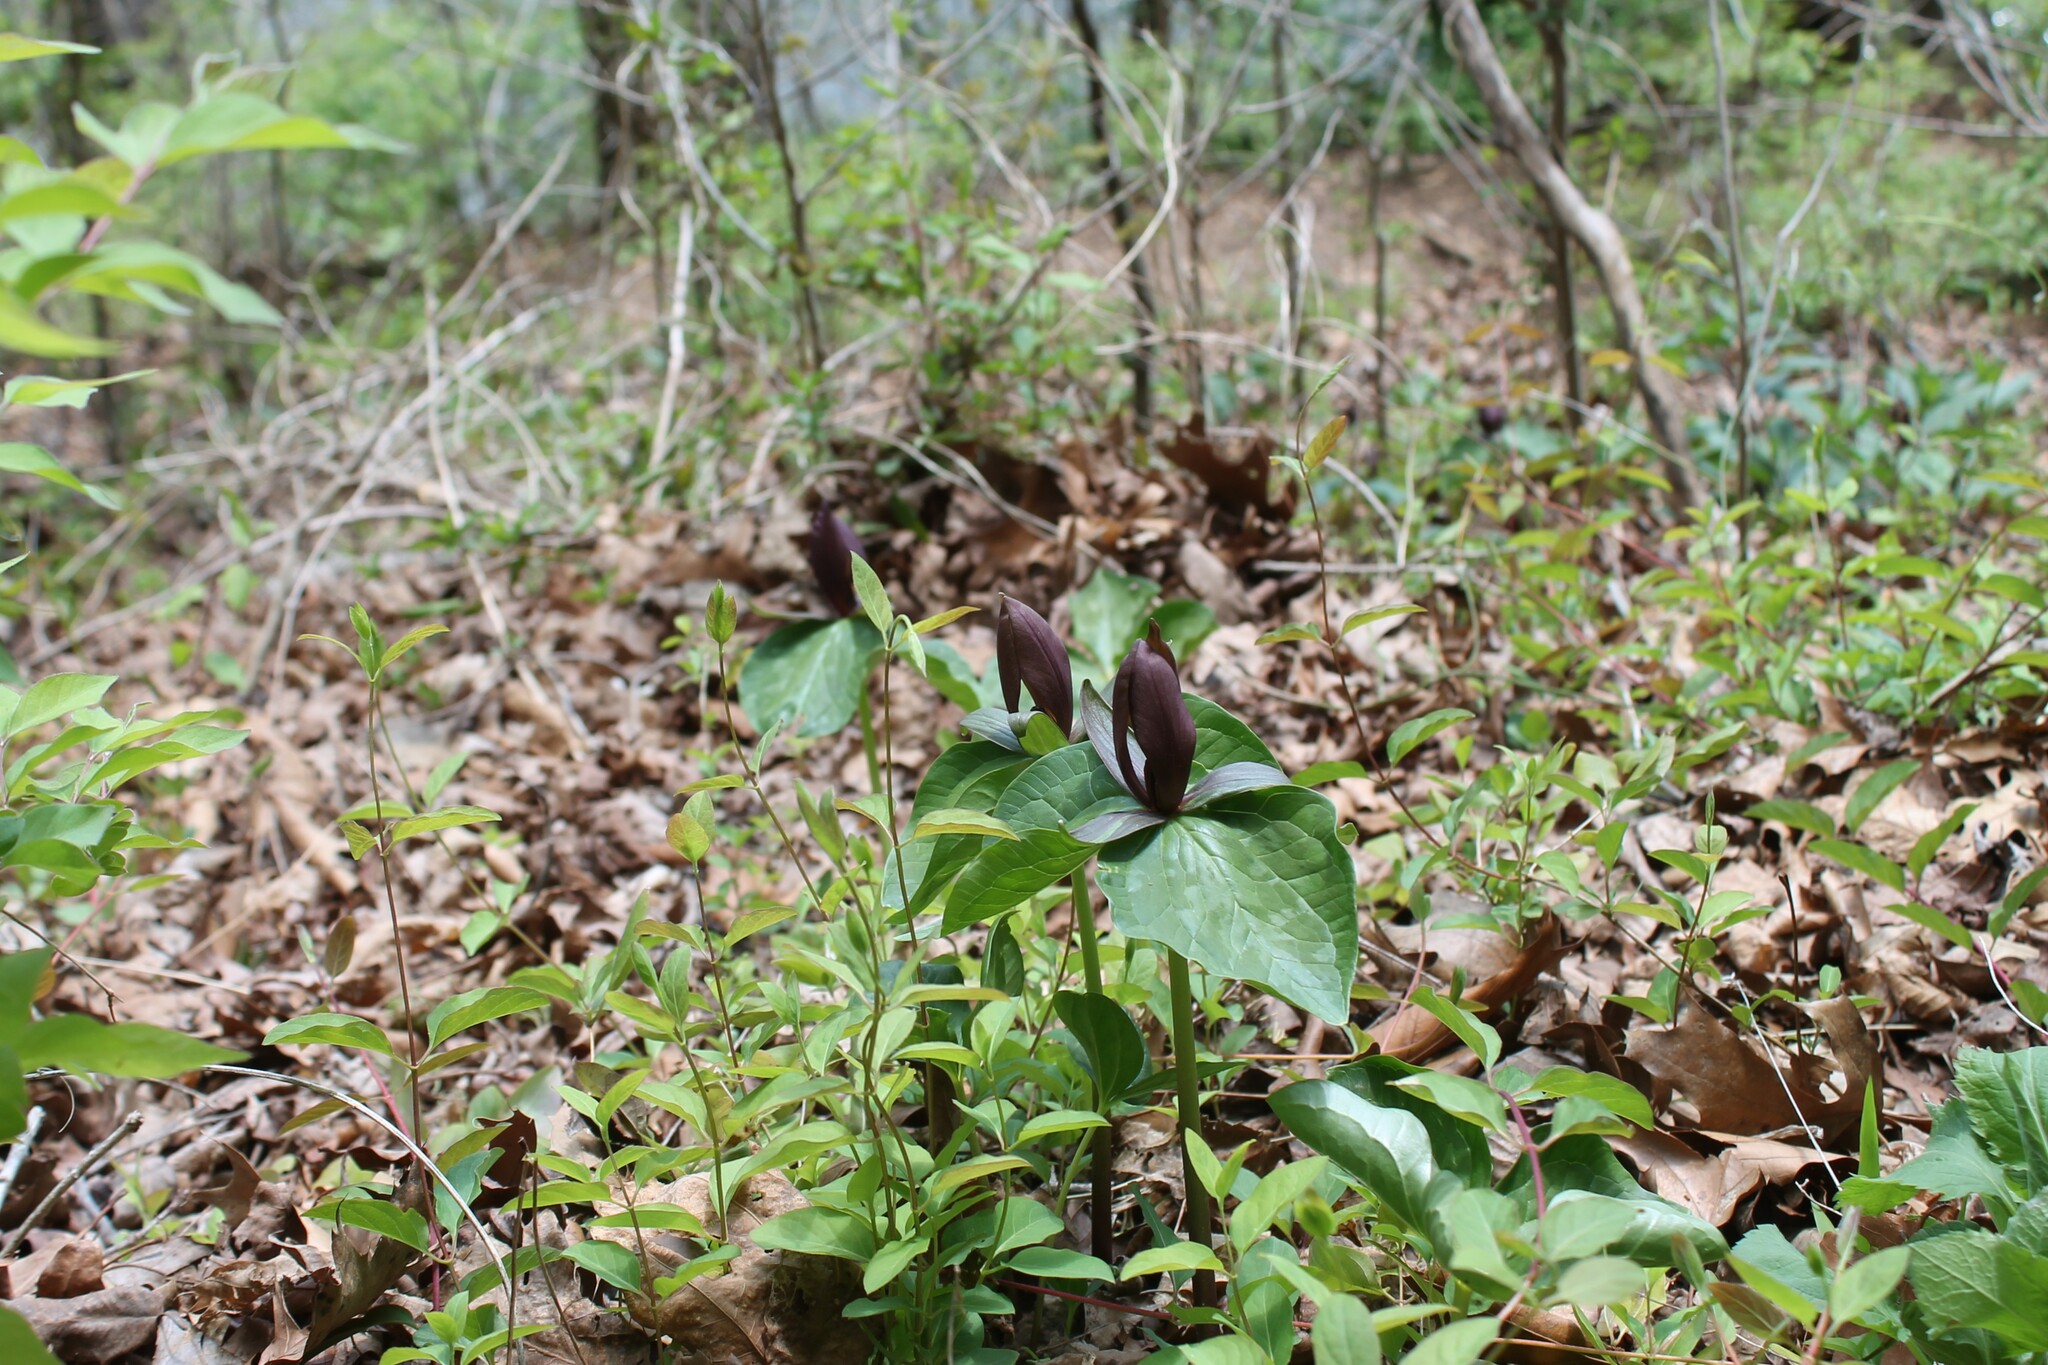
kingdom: Plantae
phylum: Tracheophyta
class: Liliopsida
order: Liliales
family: Melanthiaceae
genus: Trillium
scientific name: Trillium cuneatum
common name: Cuneate trillium
